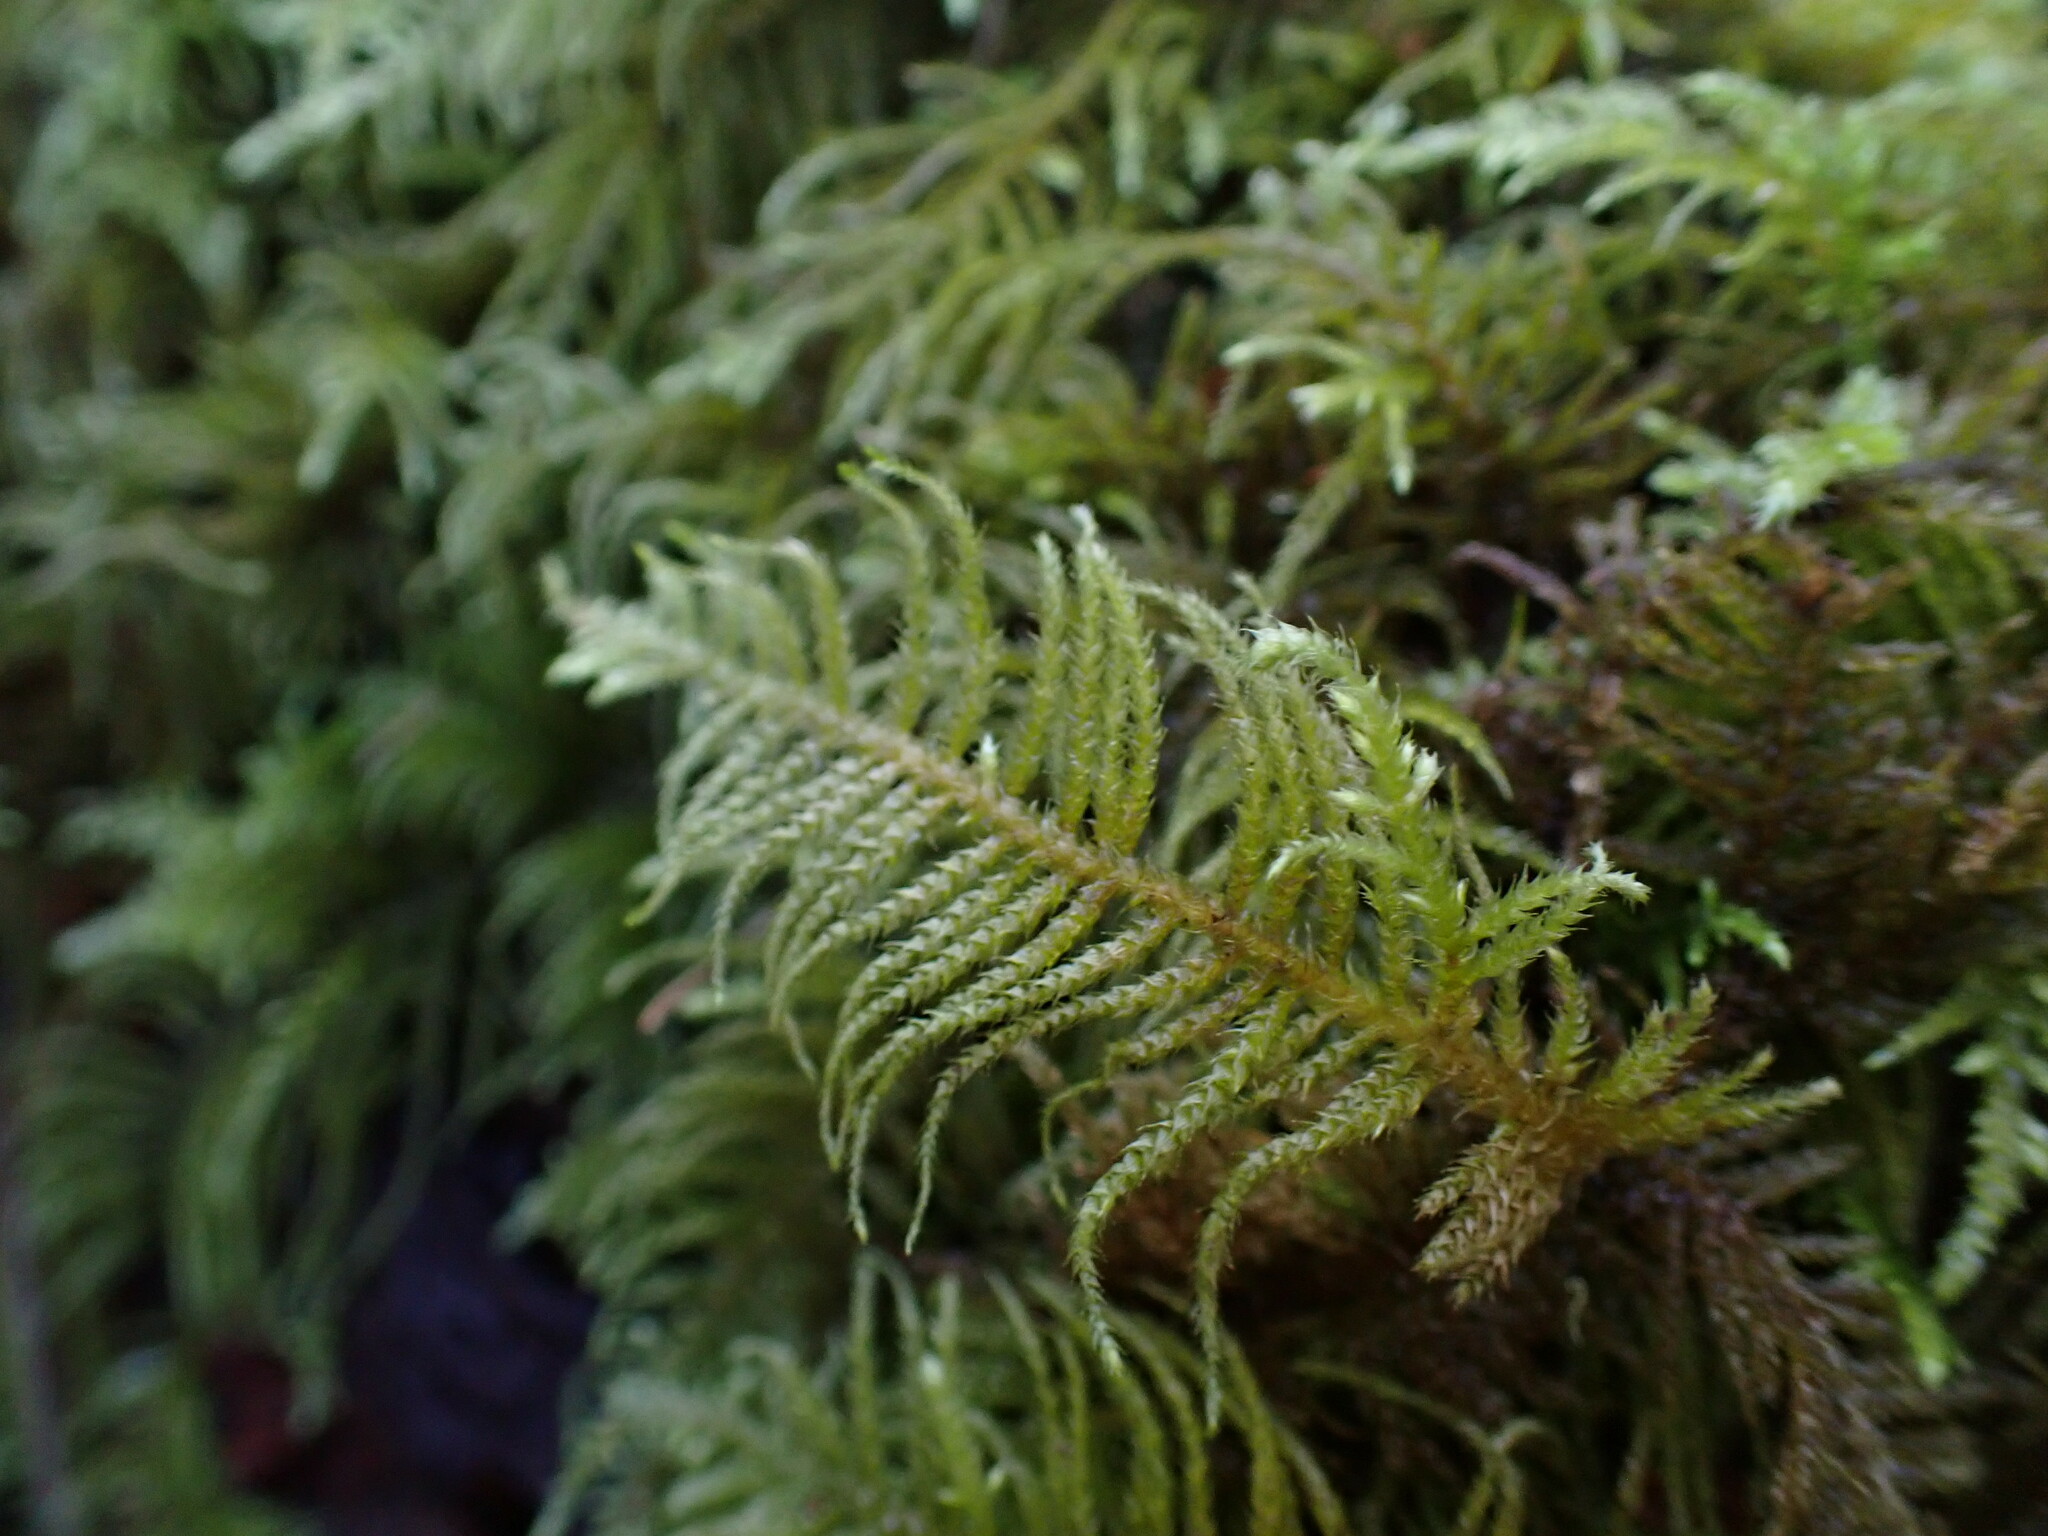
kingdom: Plantae
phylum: Bryophyta
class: Bryopsida
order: Hypnales
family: Brachytheciaceae
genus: Kindbergia
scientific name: Kindbergia oregana
